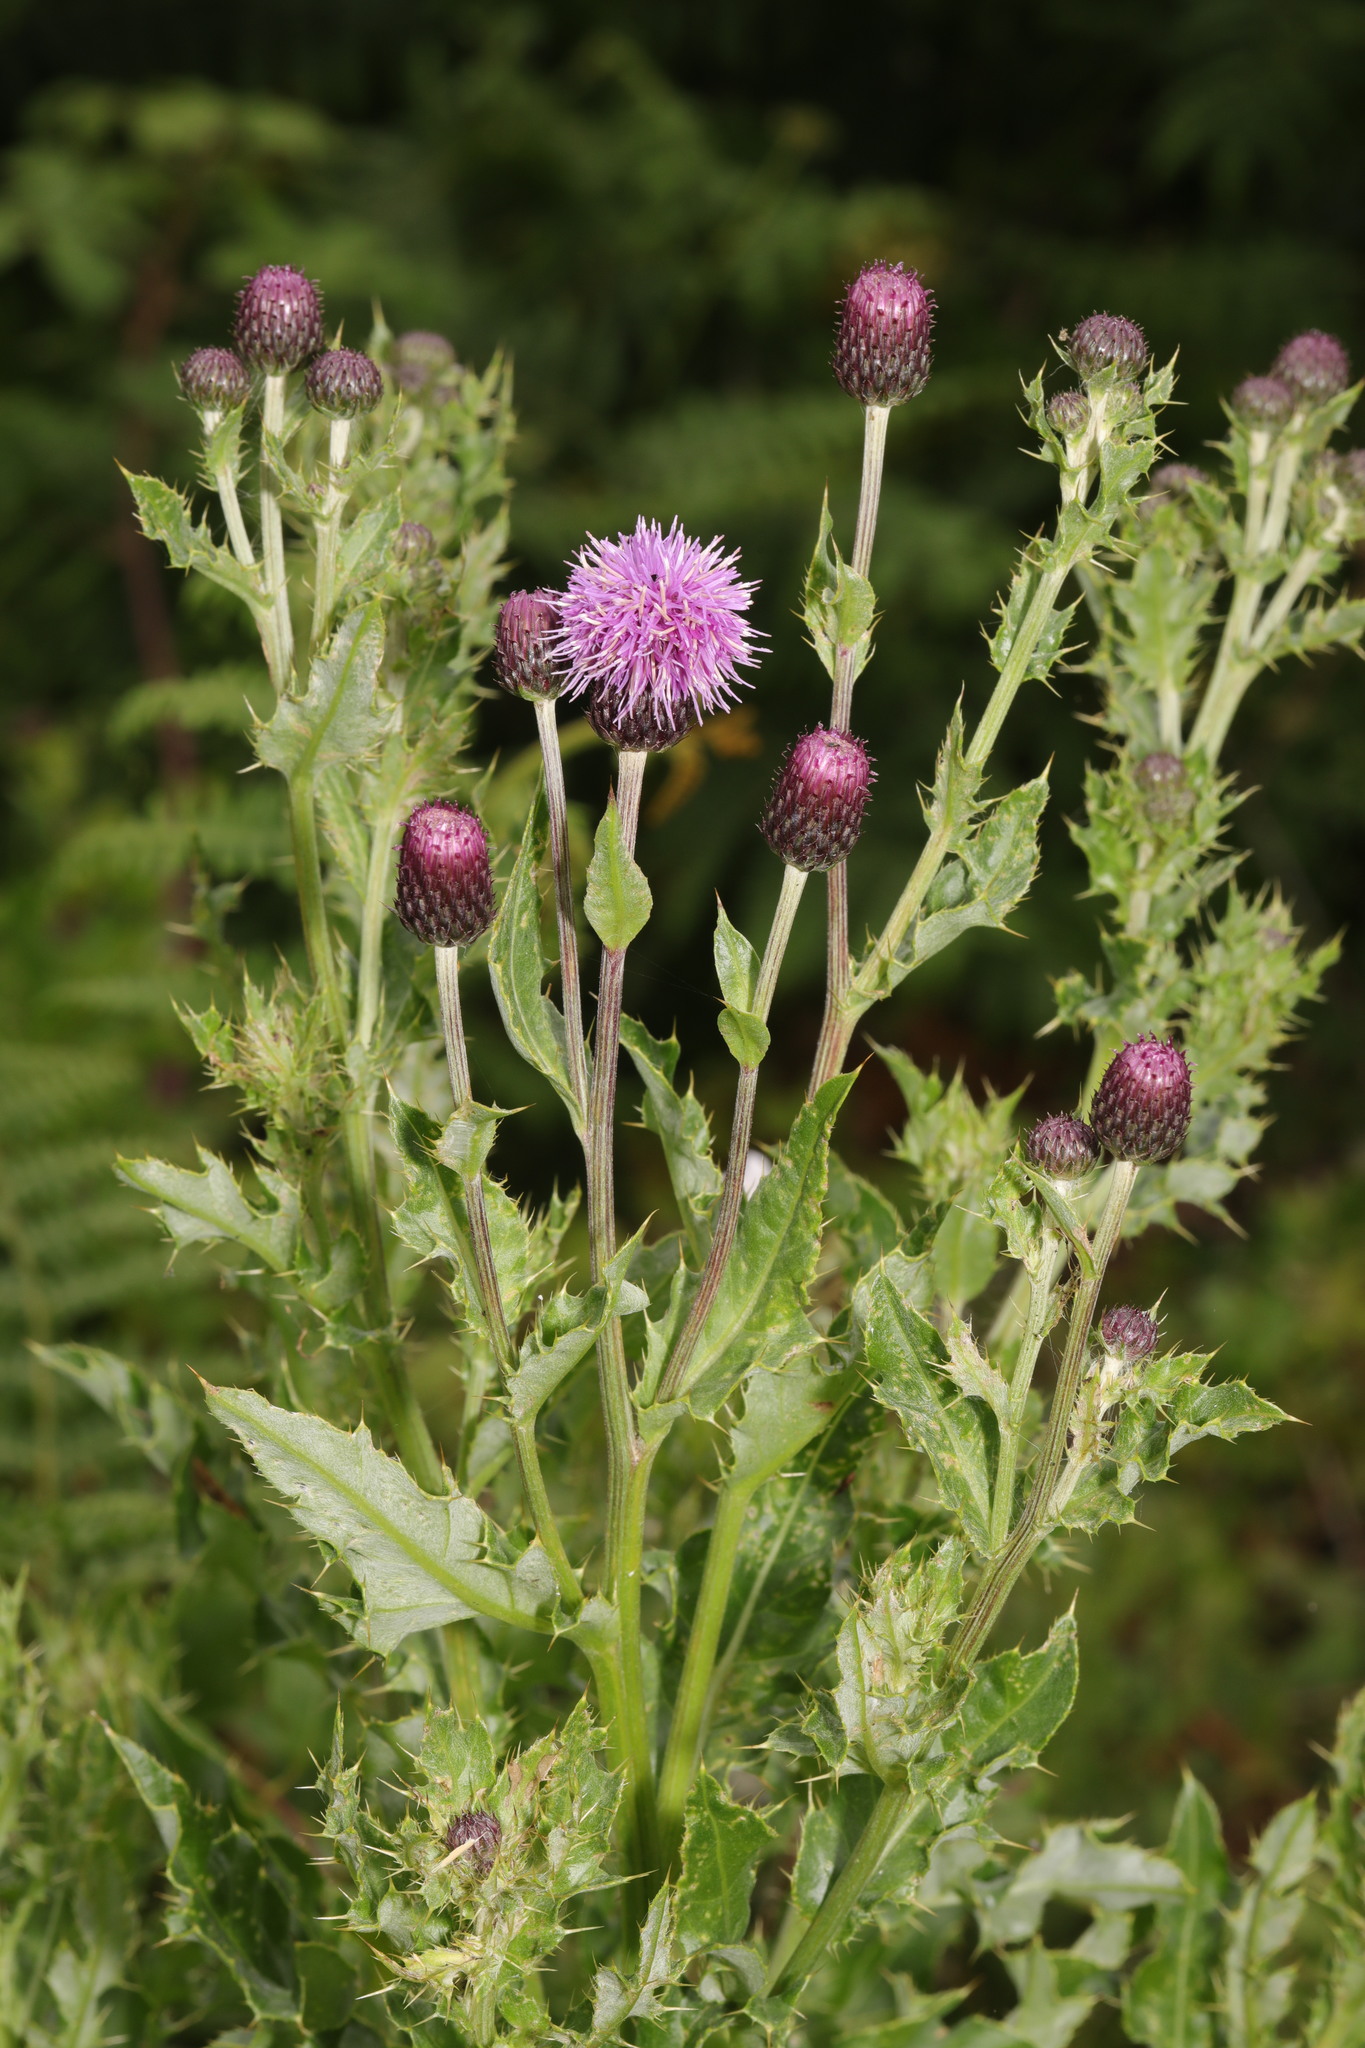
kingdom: Plantae
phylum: Tracheophyta
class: Magnoliopsida
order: Asterales
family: Asteraceae
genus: Cirsium
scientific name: Cirsium arvense
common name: Creeping thistle
